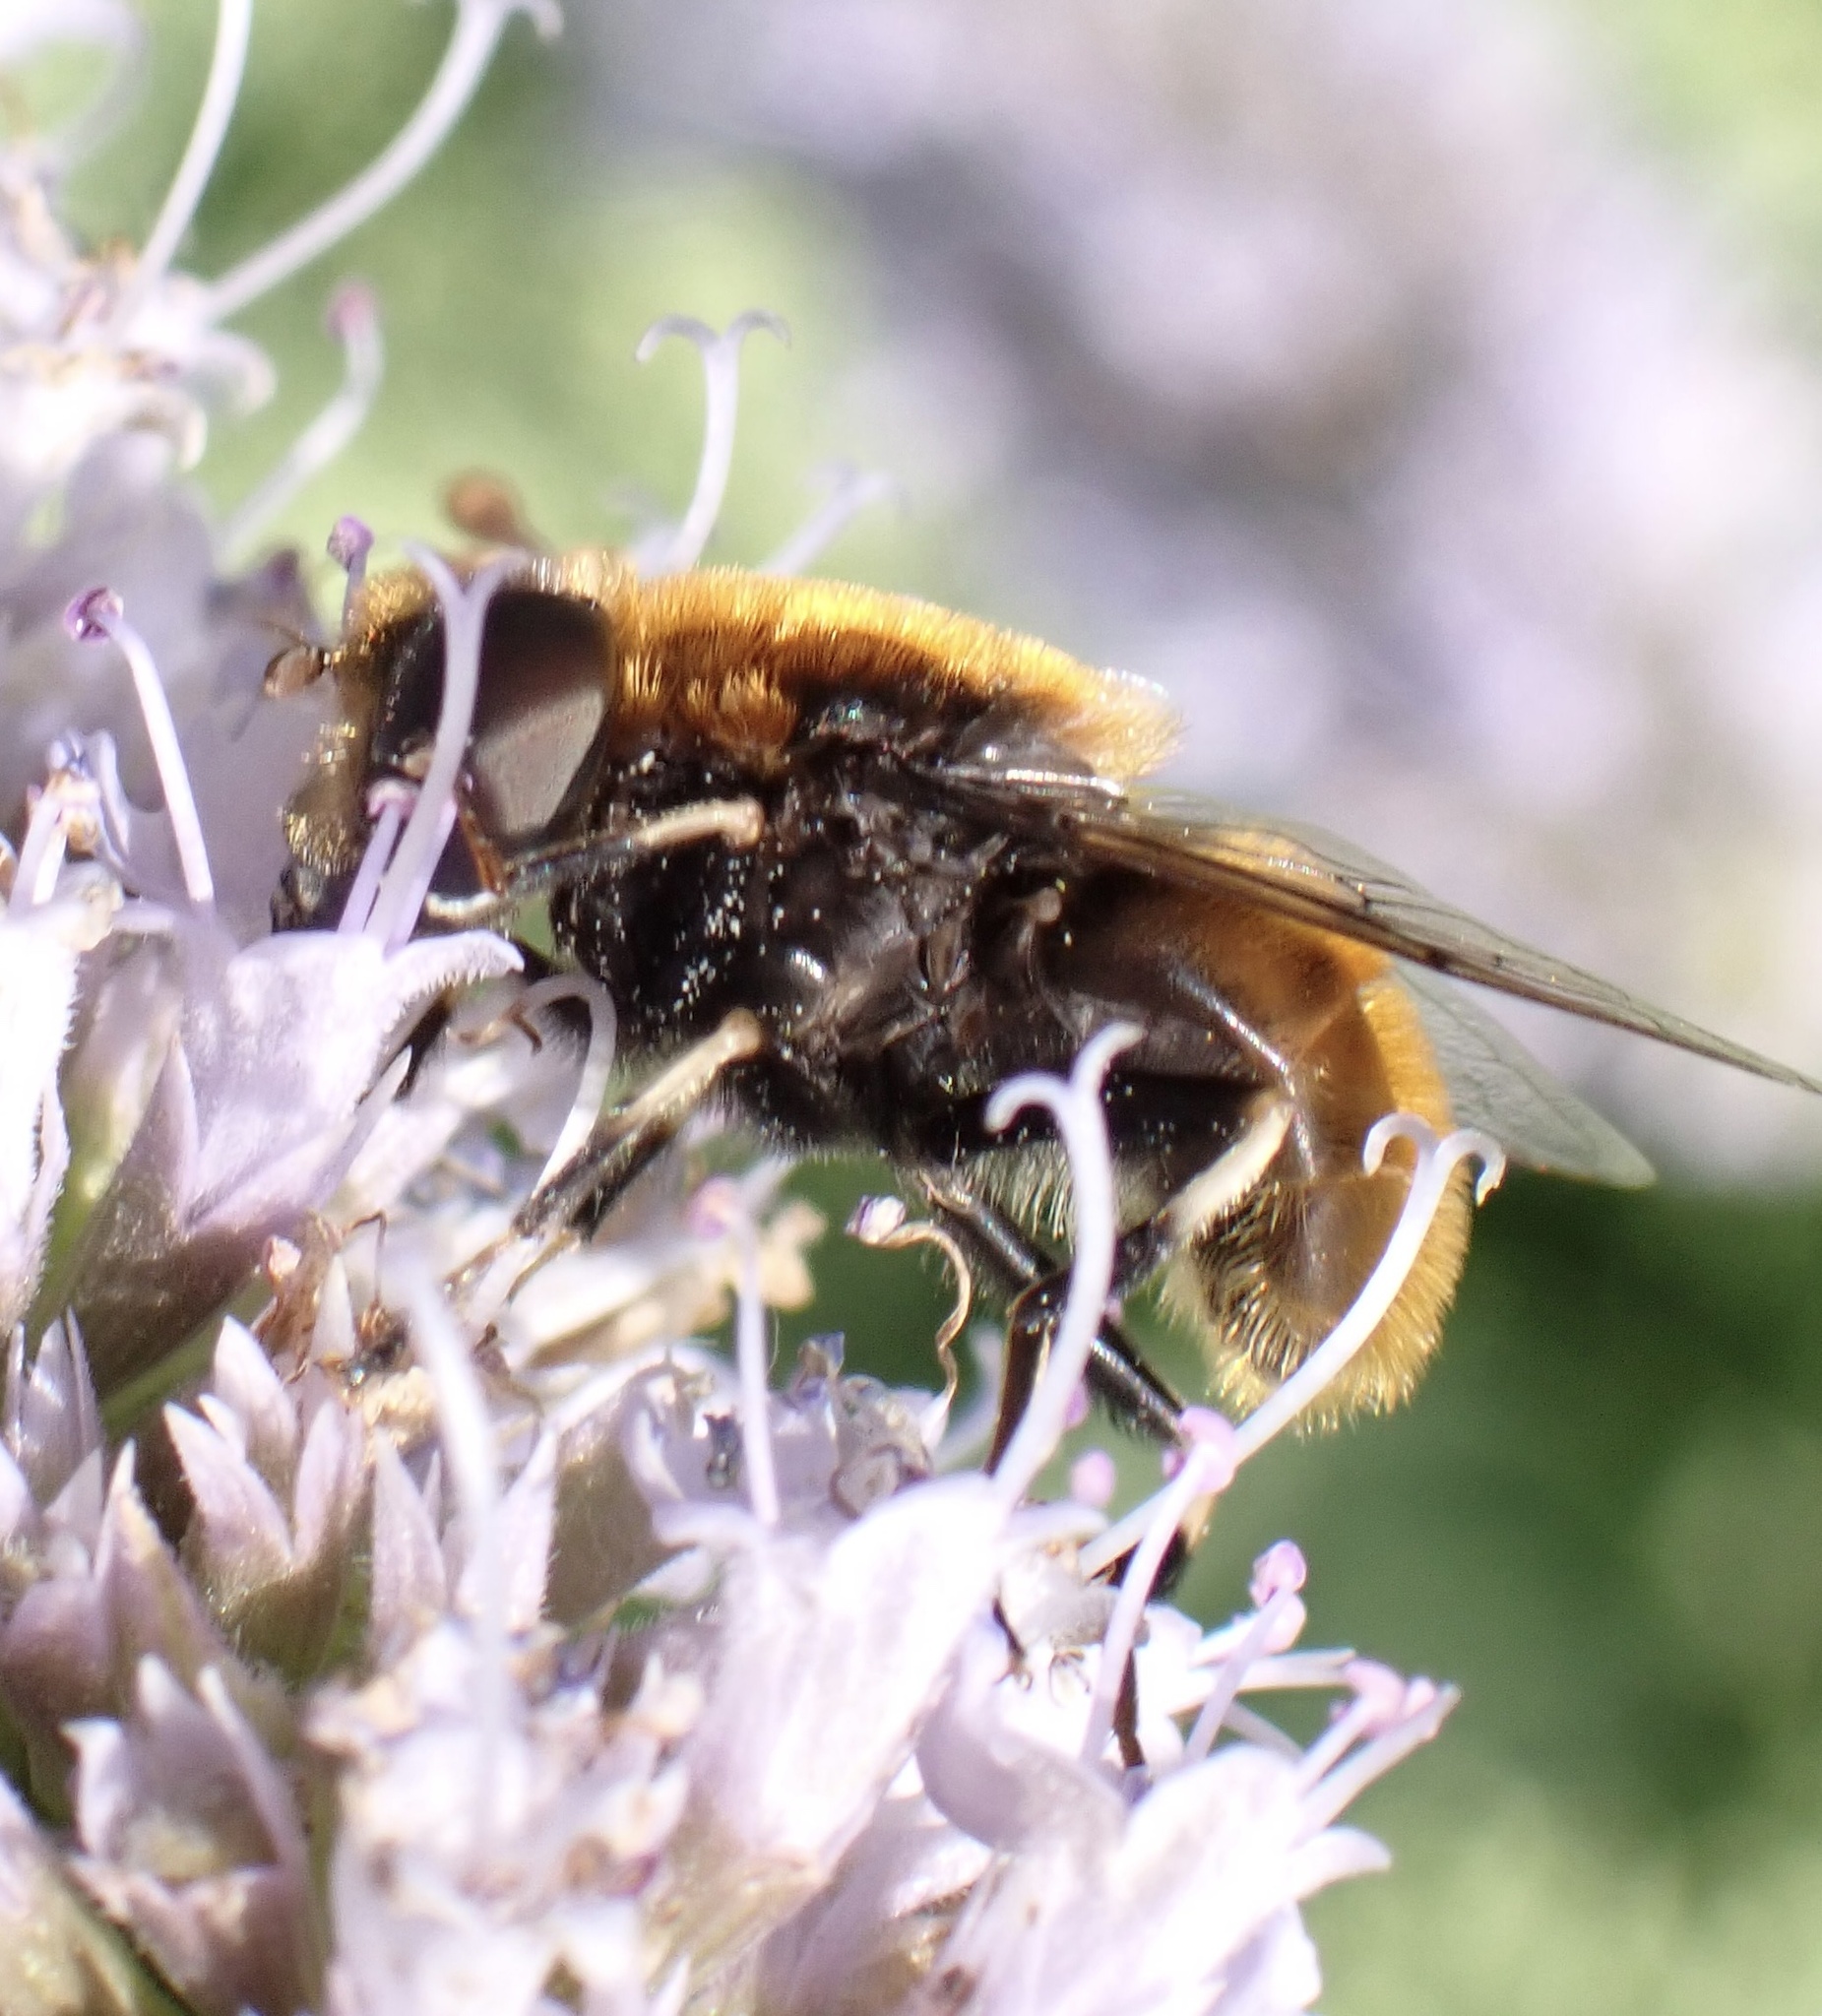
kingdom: Animalia
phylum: Arthropoda
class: Insecta
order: Diptera
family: Syrphidae
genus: Eristalis
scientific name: Eristalis intricaria
